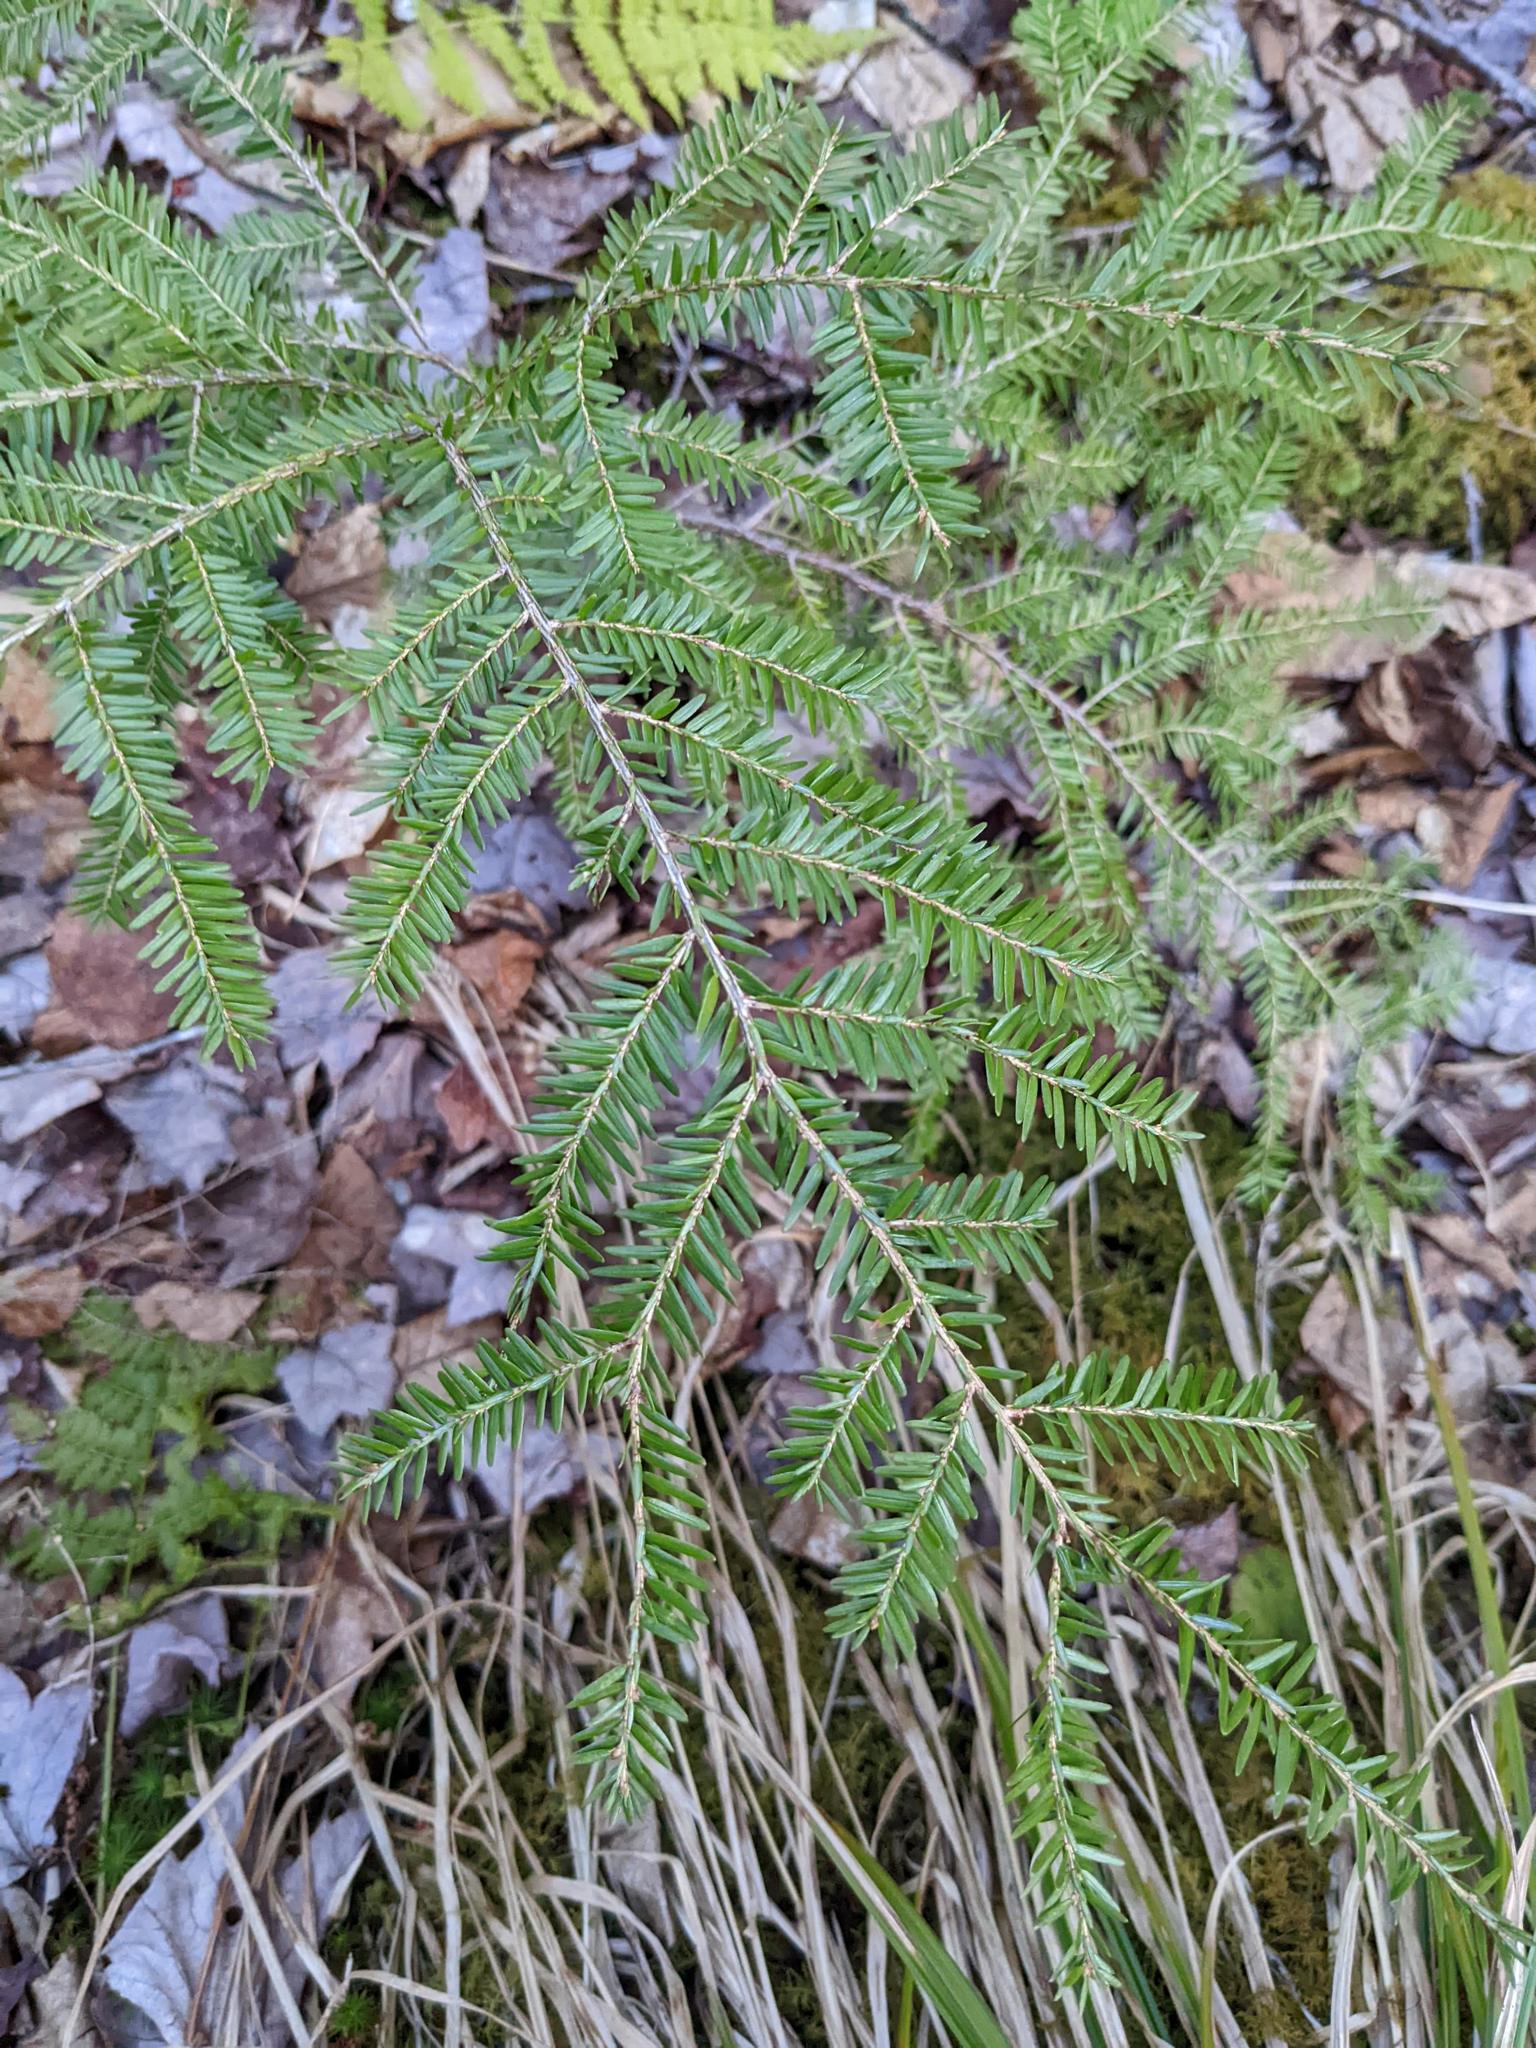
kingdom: Plantae
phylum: Tracheophyta
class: Pinopsida
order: Pinales
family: Pinaceae
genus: Tsuga
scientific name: Tsuga canadensis
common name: Eastern hemlock
